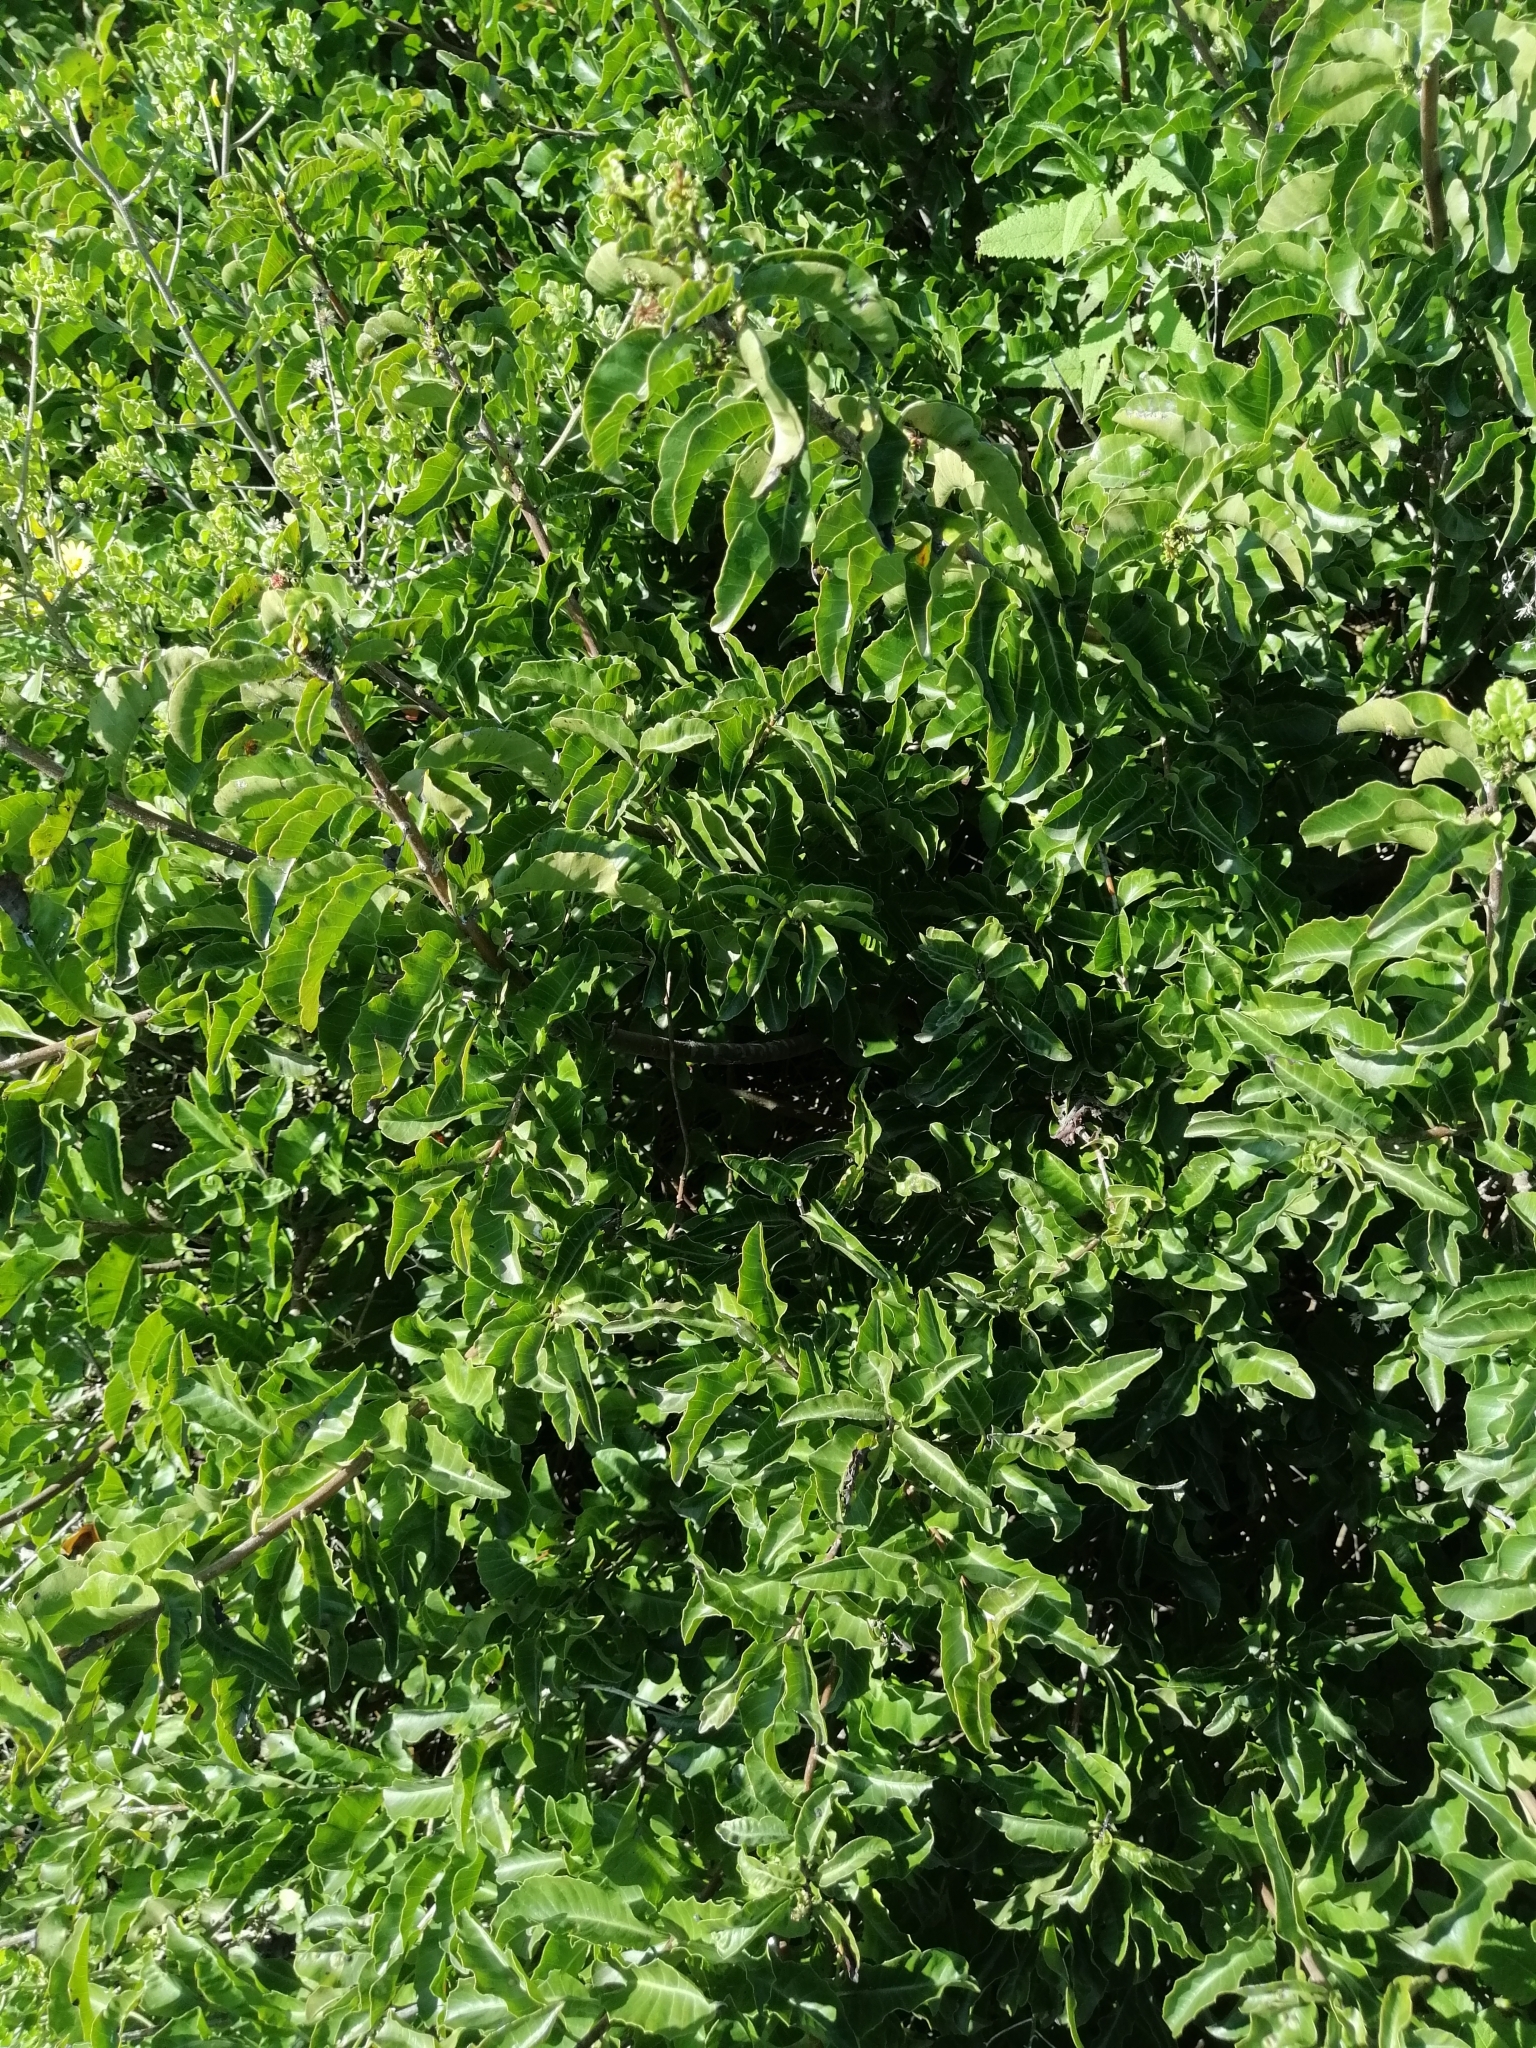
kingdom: Plantae
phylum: Tracheophyta
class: Magnoliopsida
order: Sapindales
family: Anacardiaceae
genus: Schinus
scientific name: Schinus latifolia
